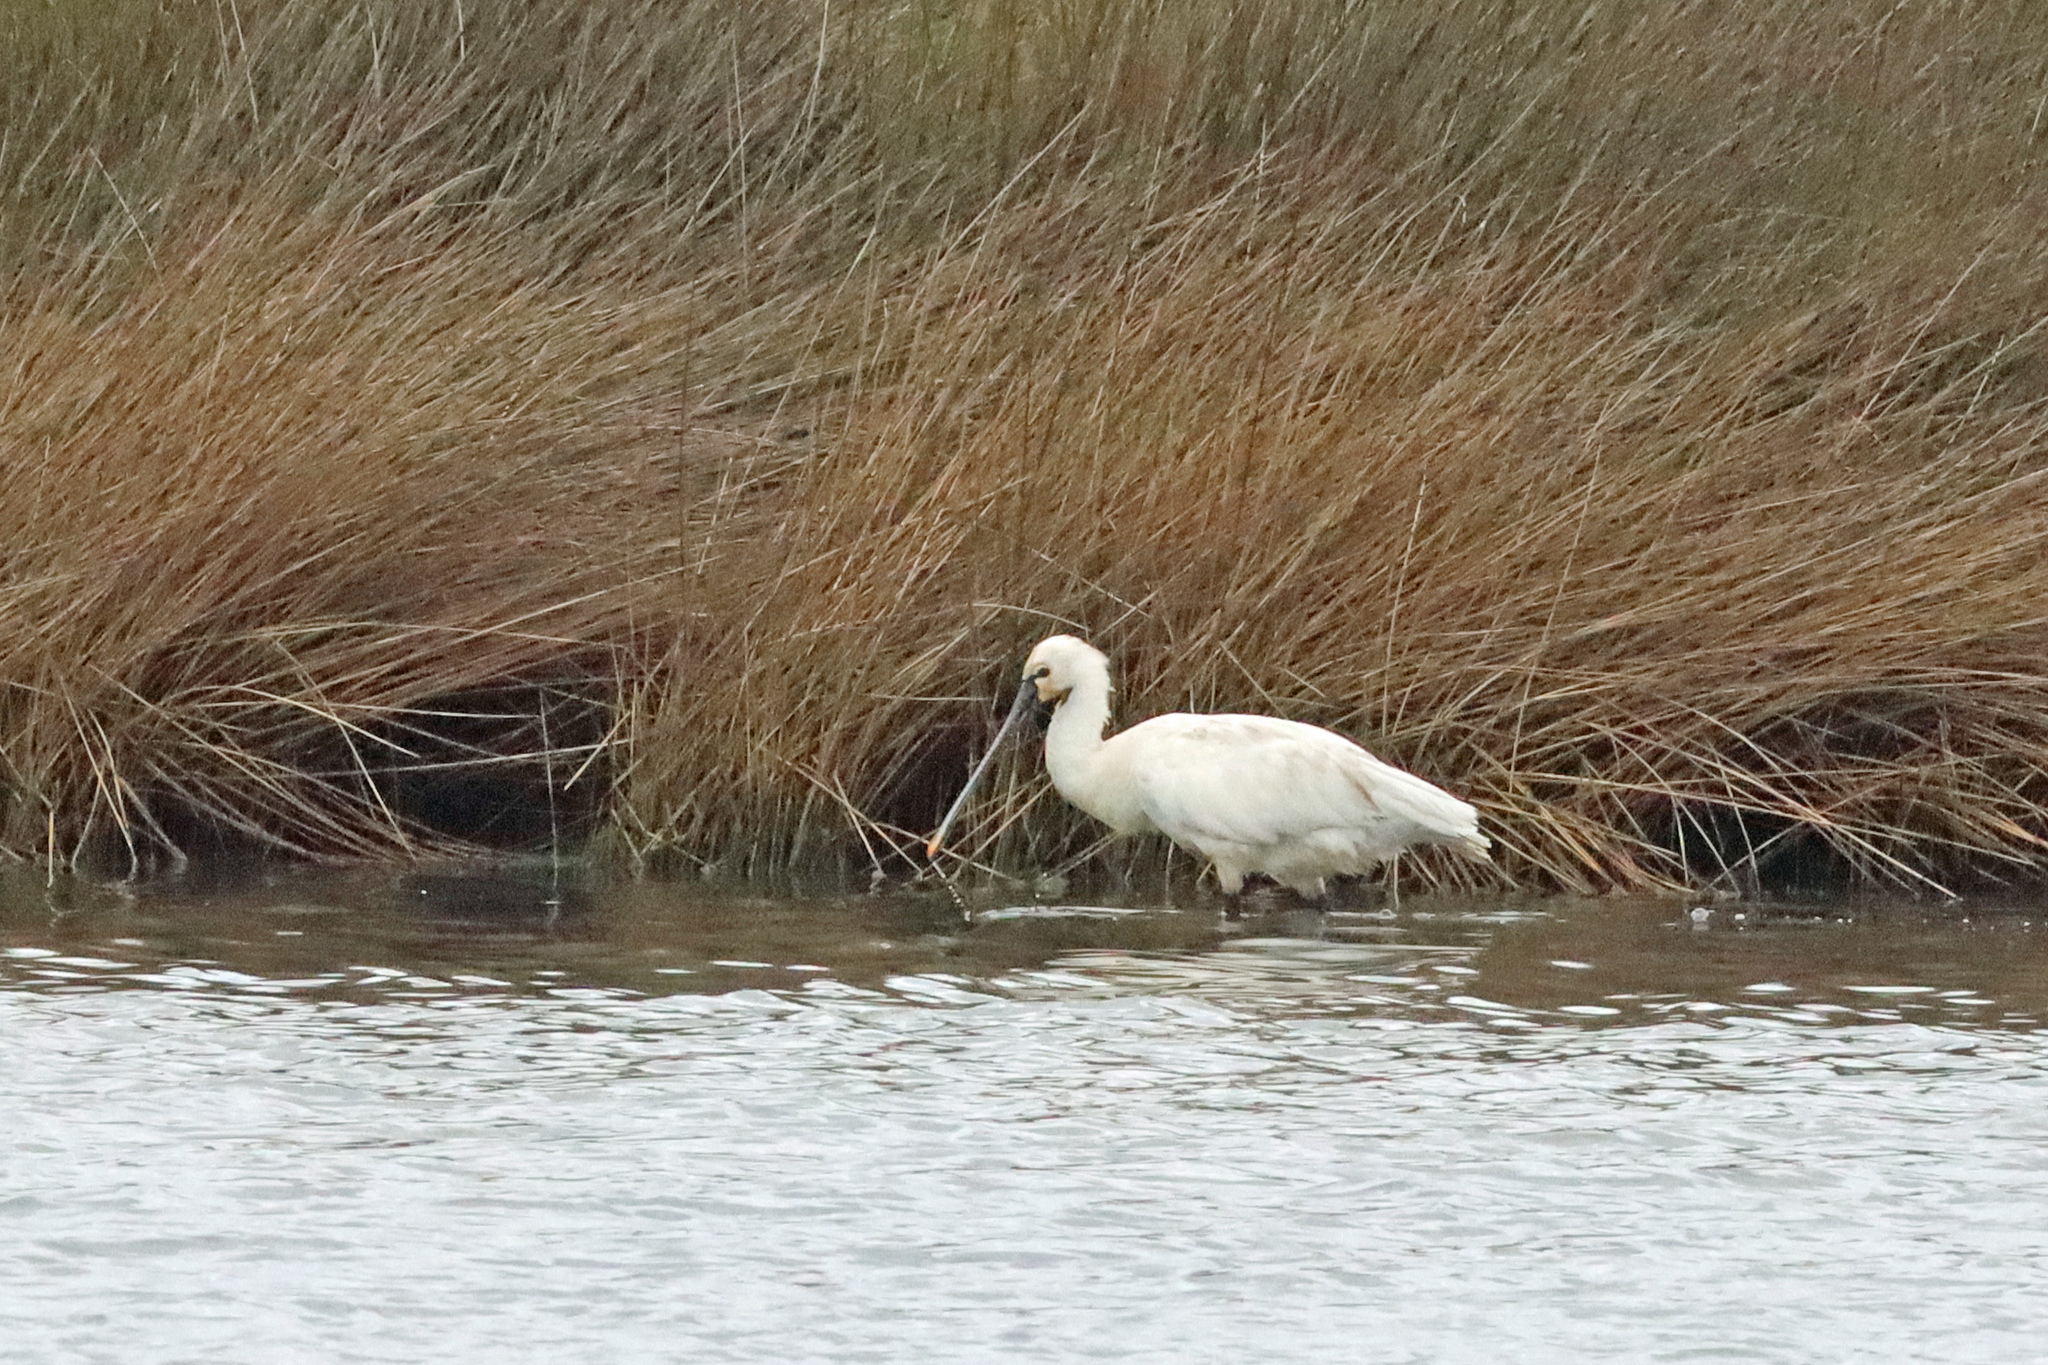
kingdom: Animalia
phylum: Chordata
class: Aves
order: Pelecaniformes
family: Threskiornithidae
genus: Platalea
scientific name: Platalea leucorodia
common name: Eurasian spoonbill
